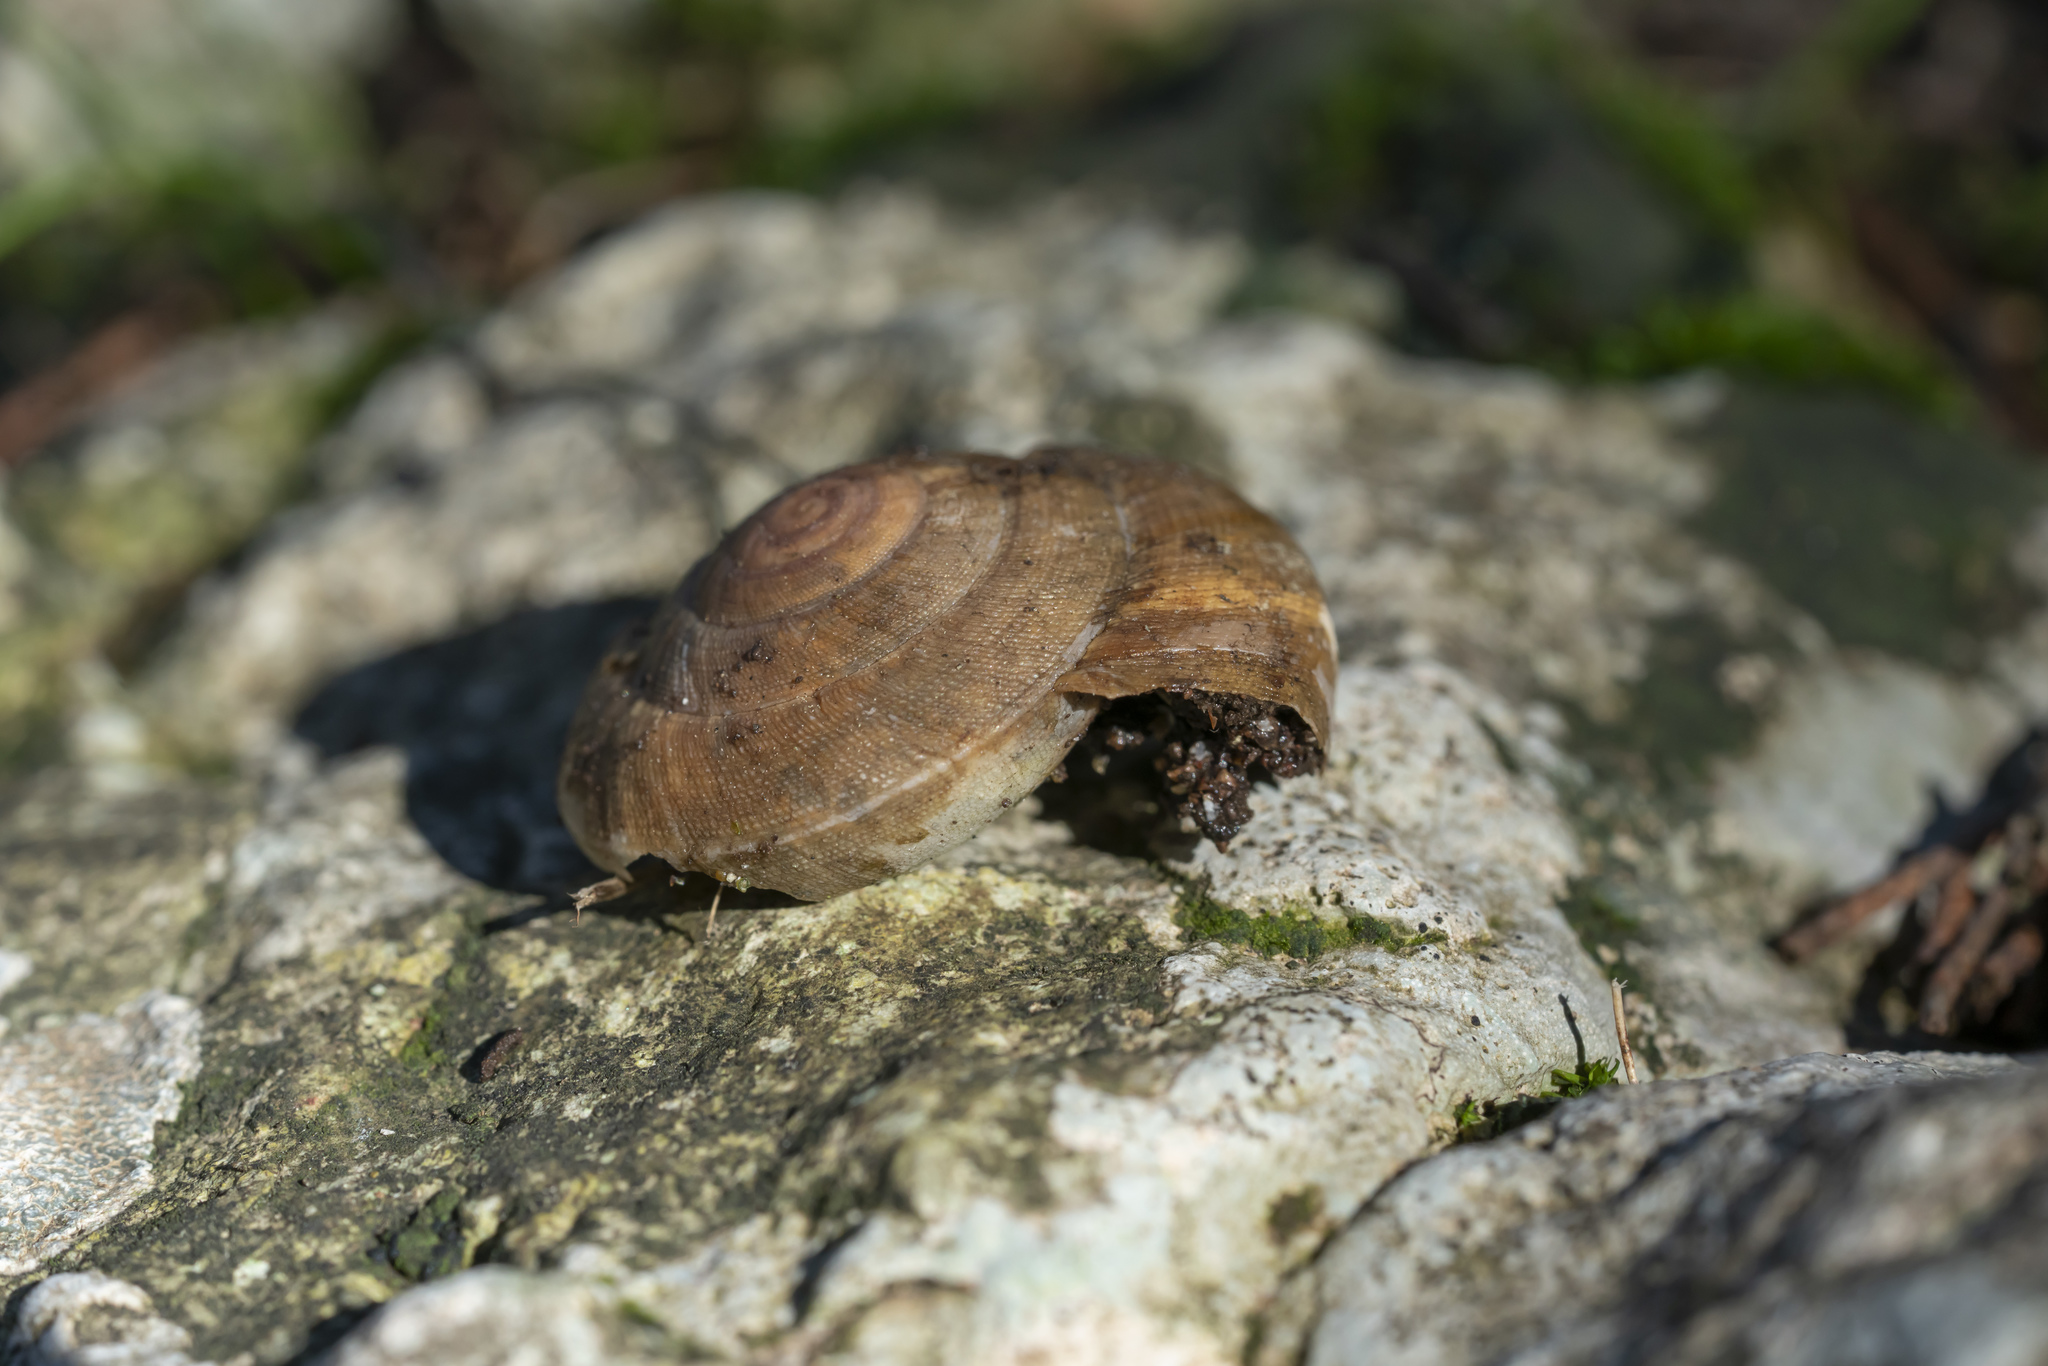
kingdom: Animalia
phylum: Mollusca
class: Gastropoda
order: Stylommatophora
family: Zonitidae
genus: Zonites
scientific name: Zonites festai
